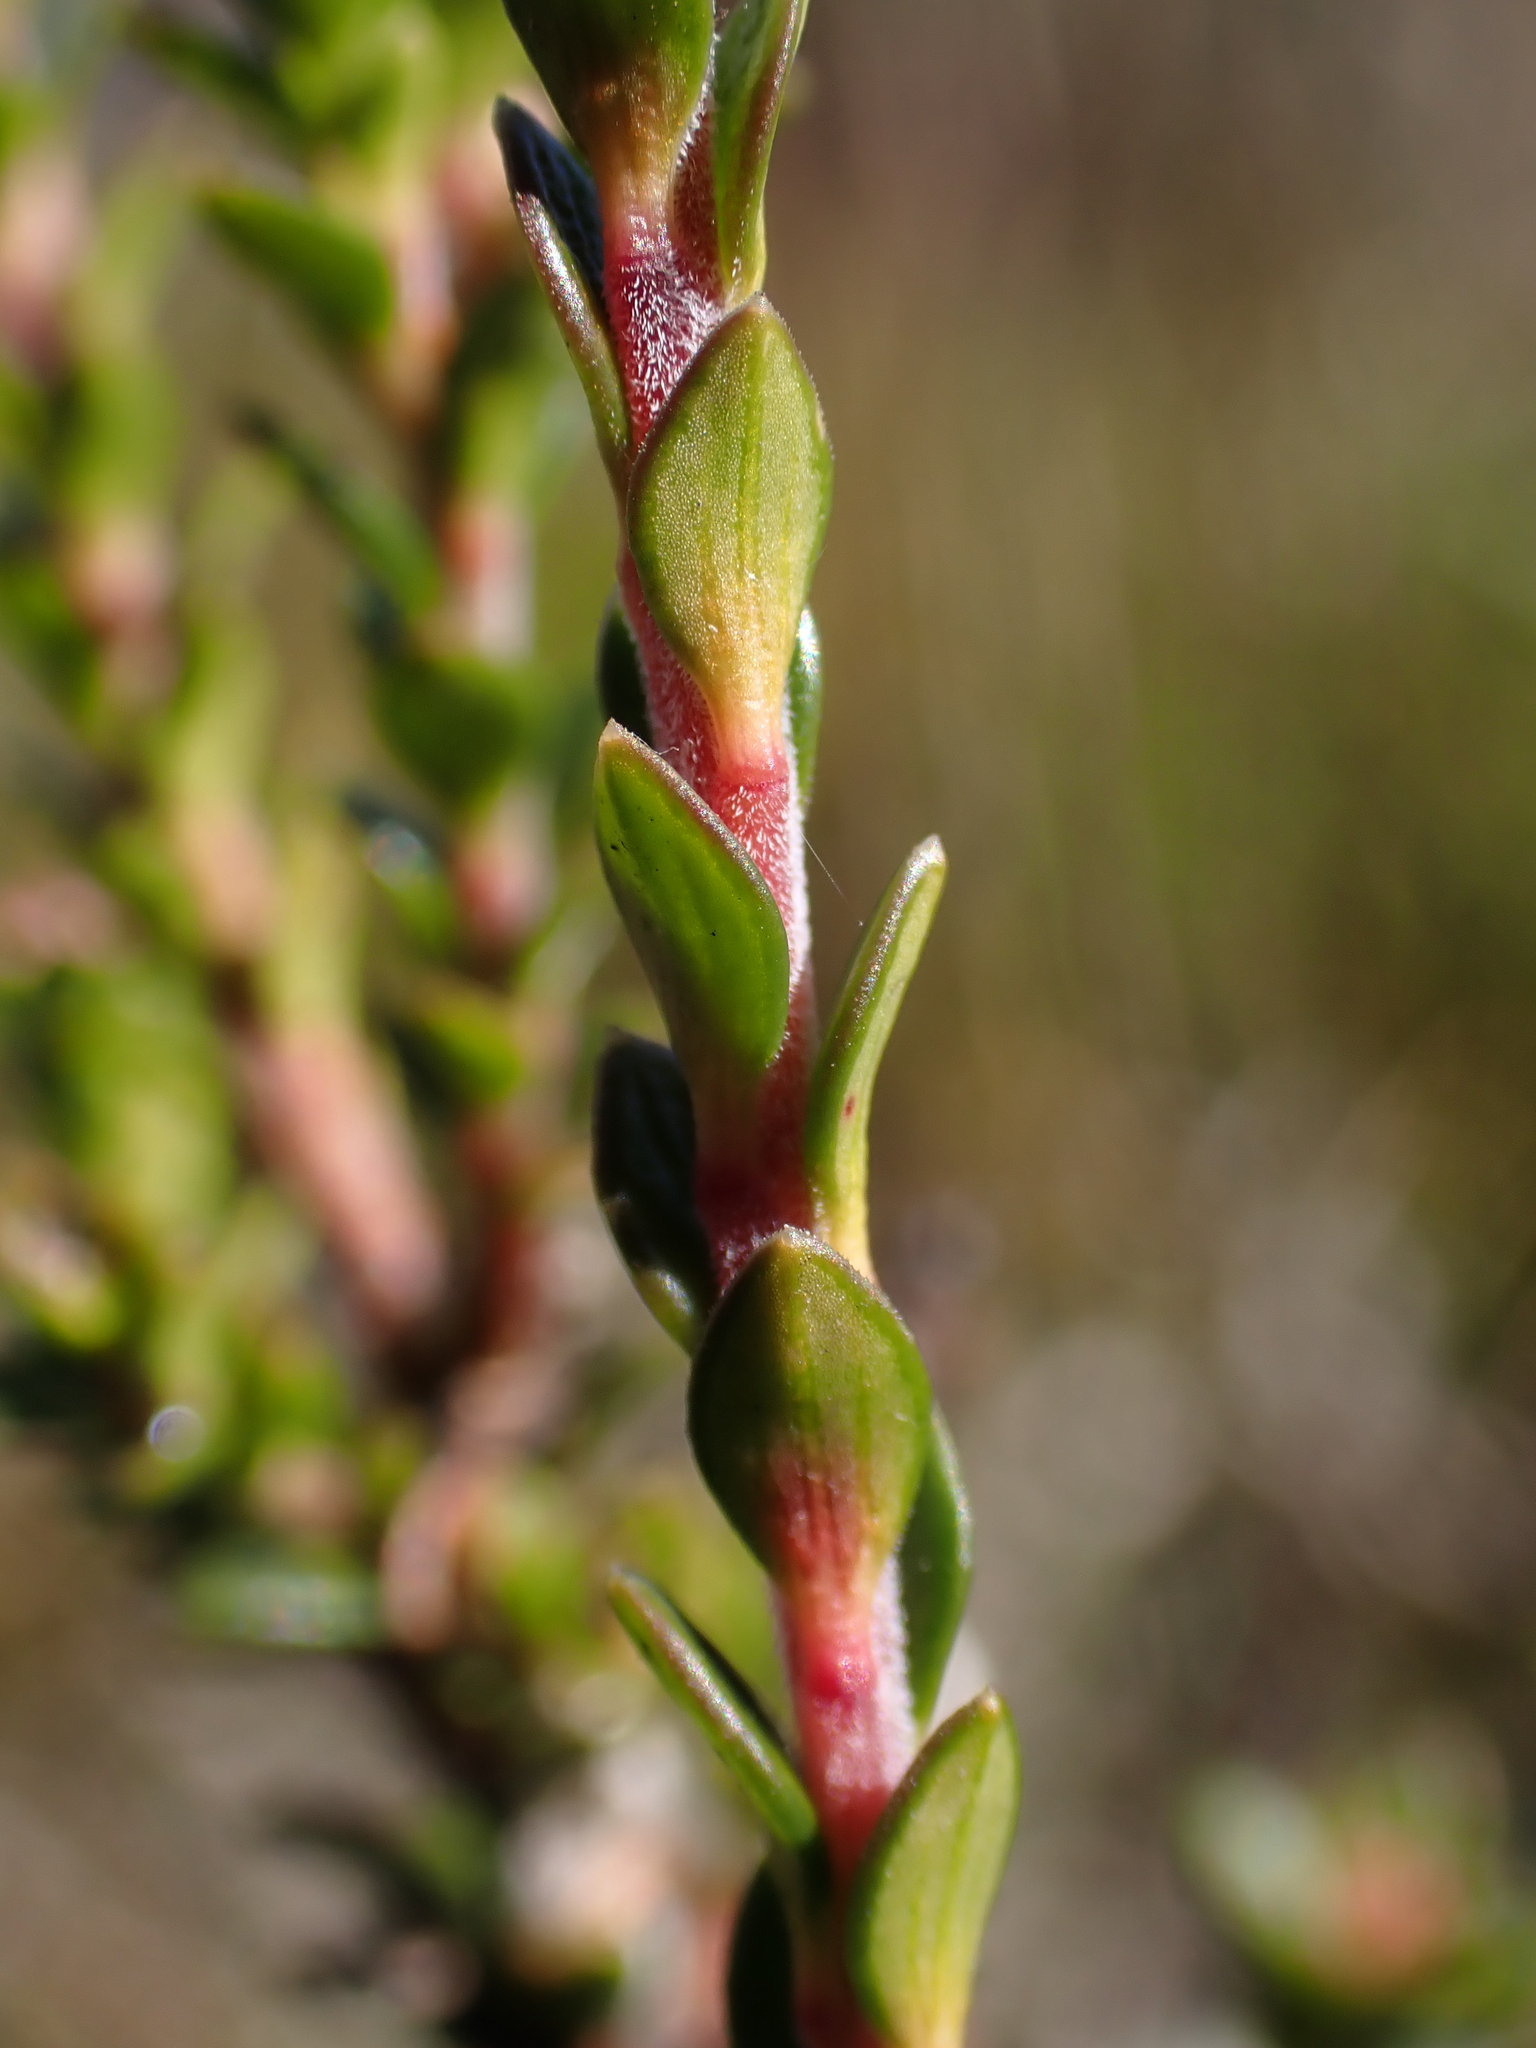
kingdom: Plantae
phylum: Tracheophyta
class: Magnoliopsida
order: Ericales
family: Ericaceae
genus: Epacris
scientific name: Epacris celata
